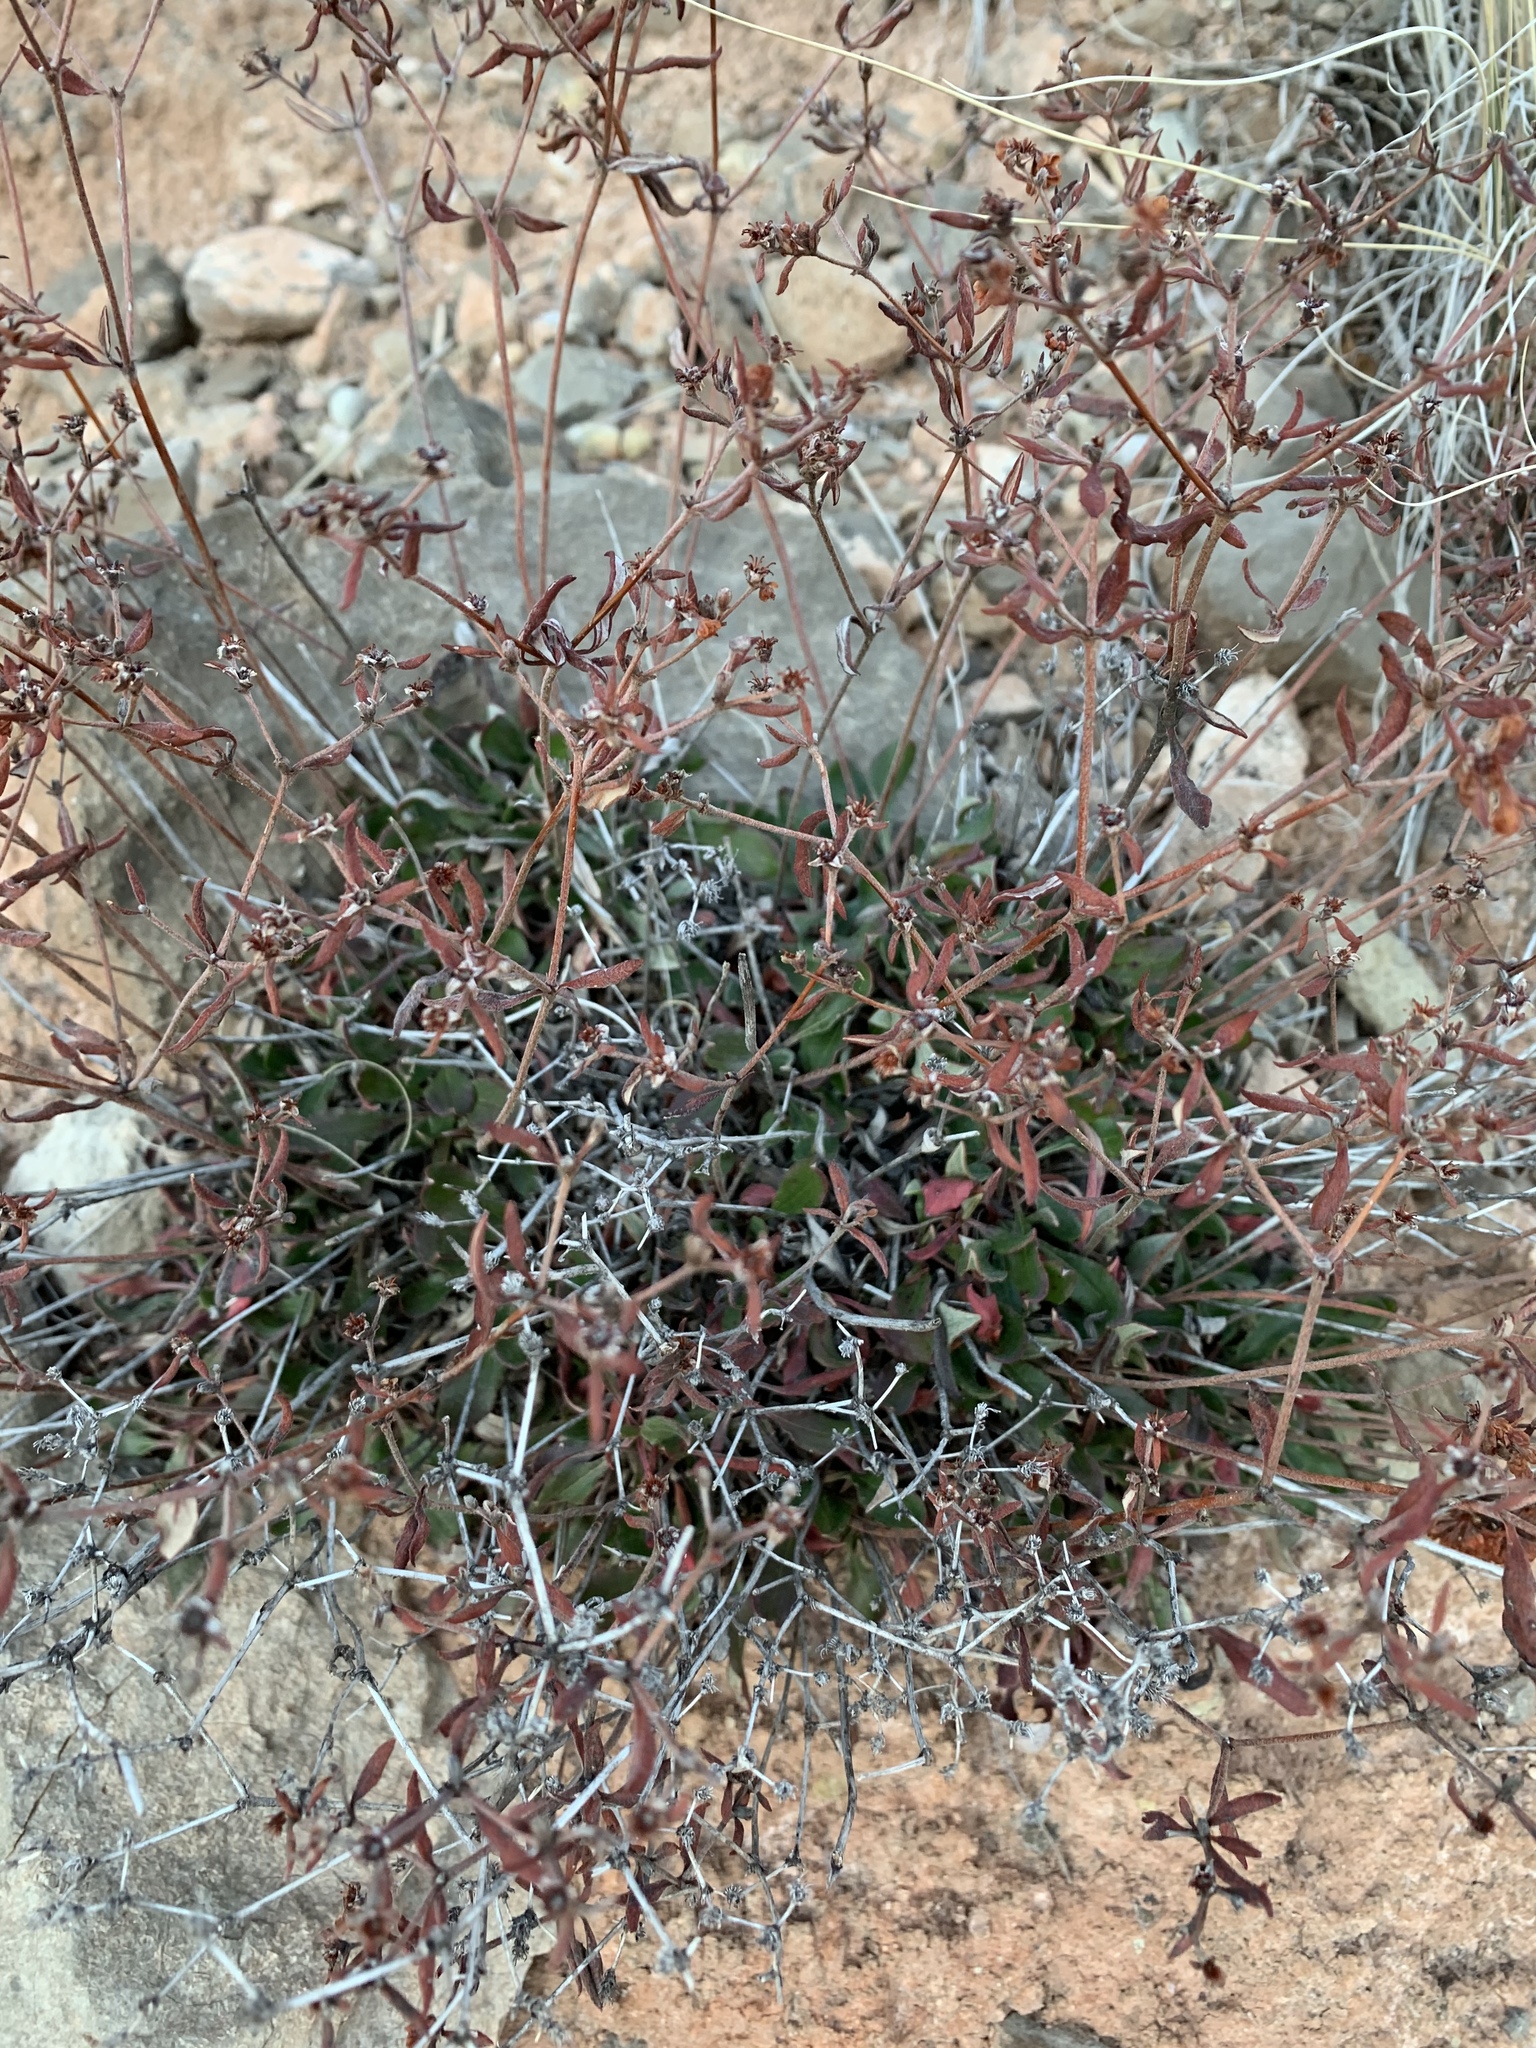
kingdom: Plantae
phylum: Tracheophyta
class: Magnoliopsida
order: Caryophyllales
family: Polygonaceae
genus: Eriogonum
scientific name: Eriogonum wootonii
